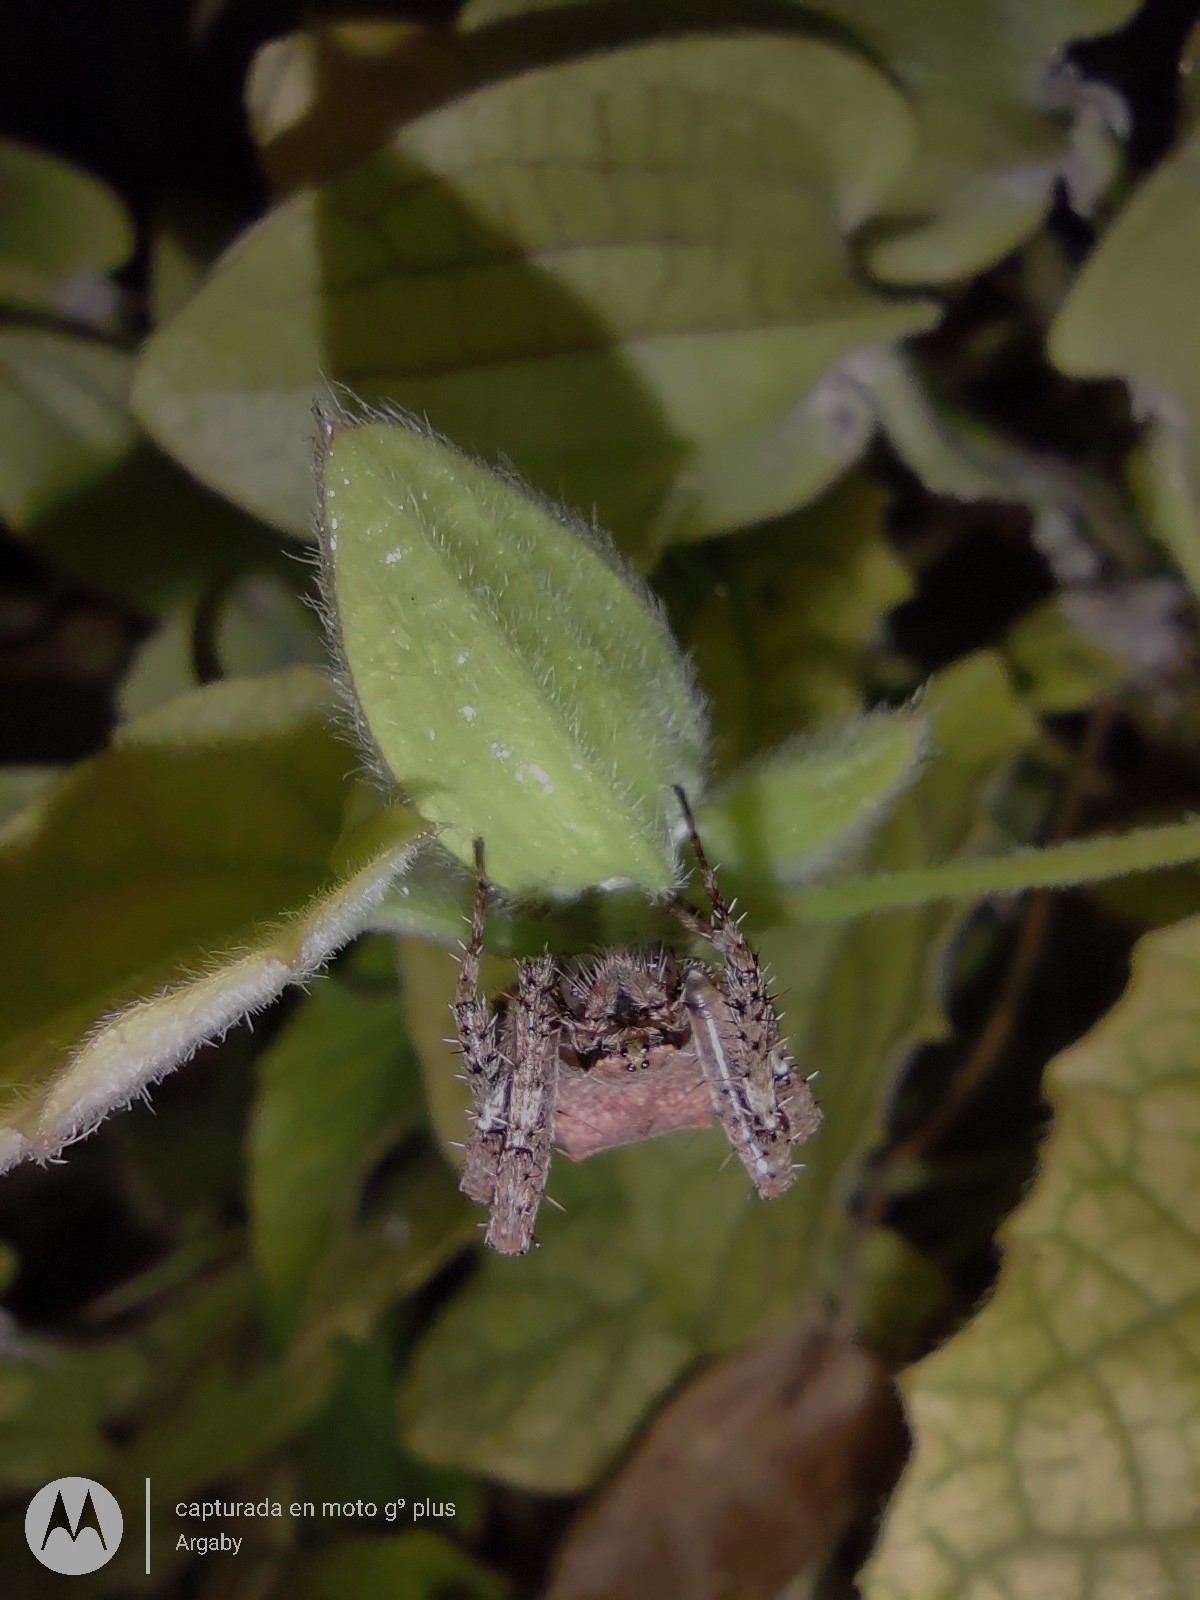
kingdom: Animalia
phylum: Arthropoda
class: Arachnida
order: Araneae
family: Araneidae
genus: Parawixia
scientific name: Parawixia audax
